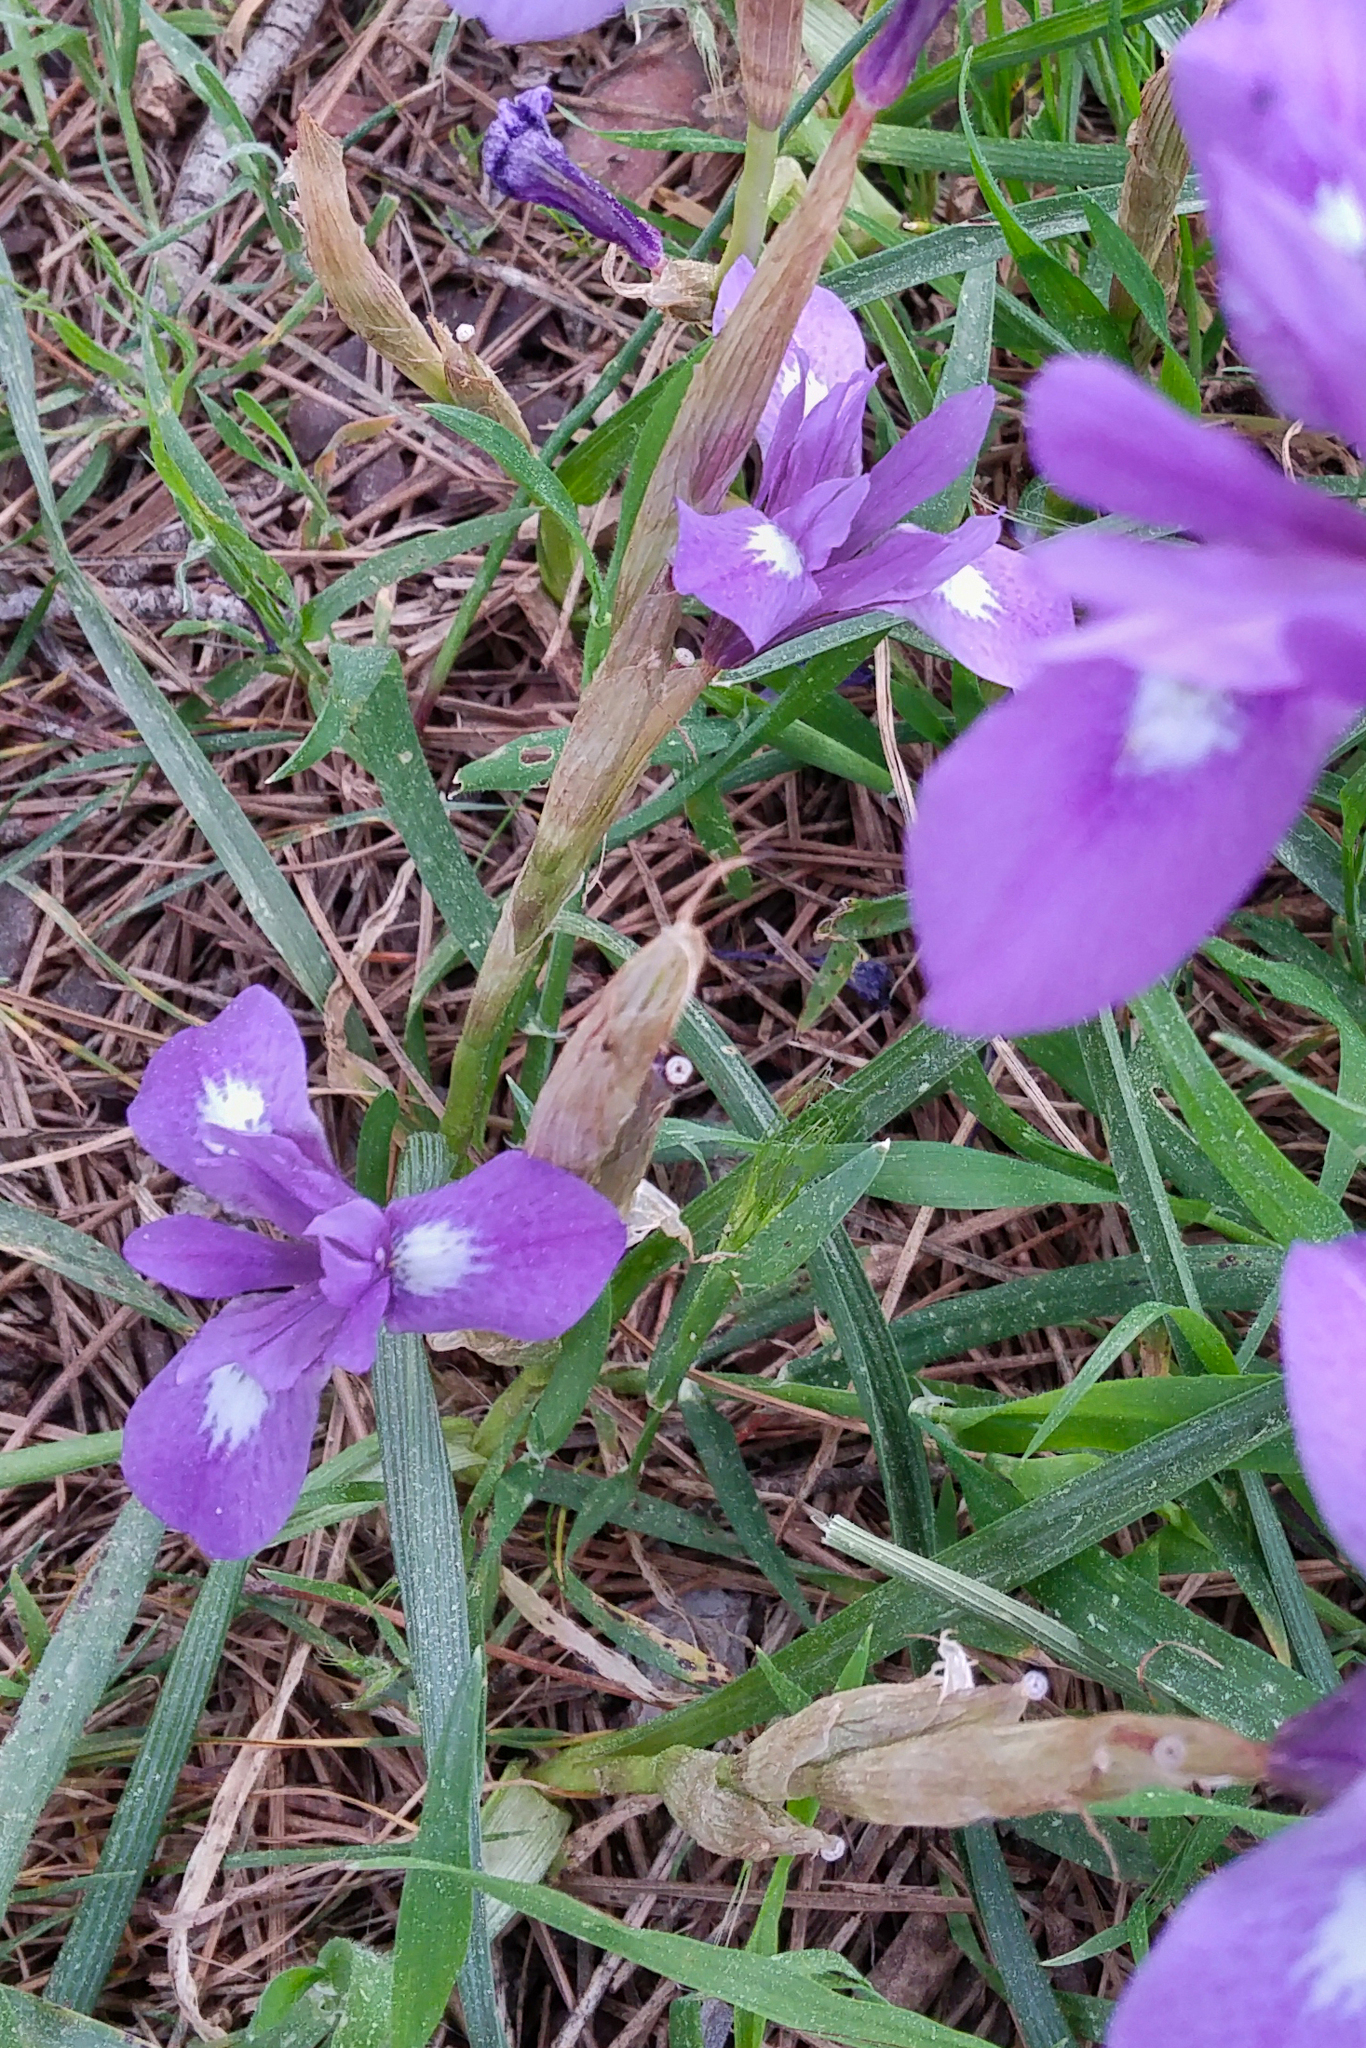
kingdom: Plantae
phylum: Tracheophyta
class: Liliopsida
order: Asparagales
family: Iridaceae
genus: Moraea
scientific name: Moraea sisyrinchium
